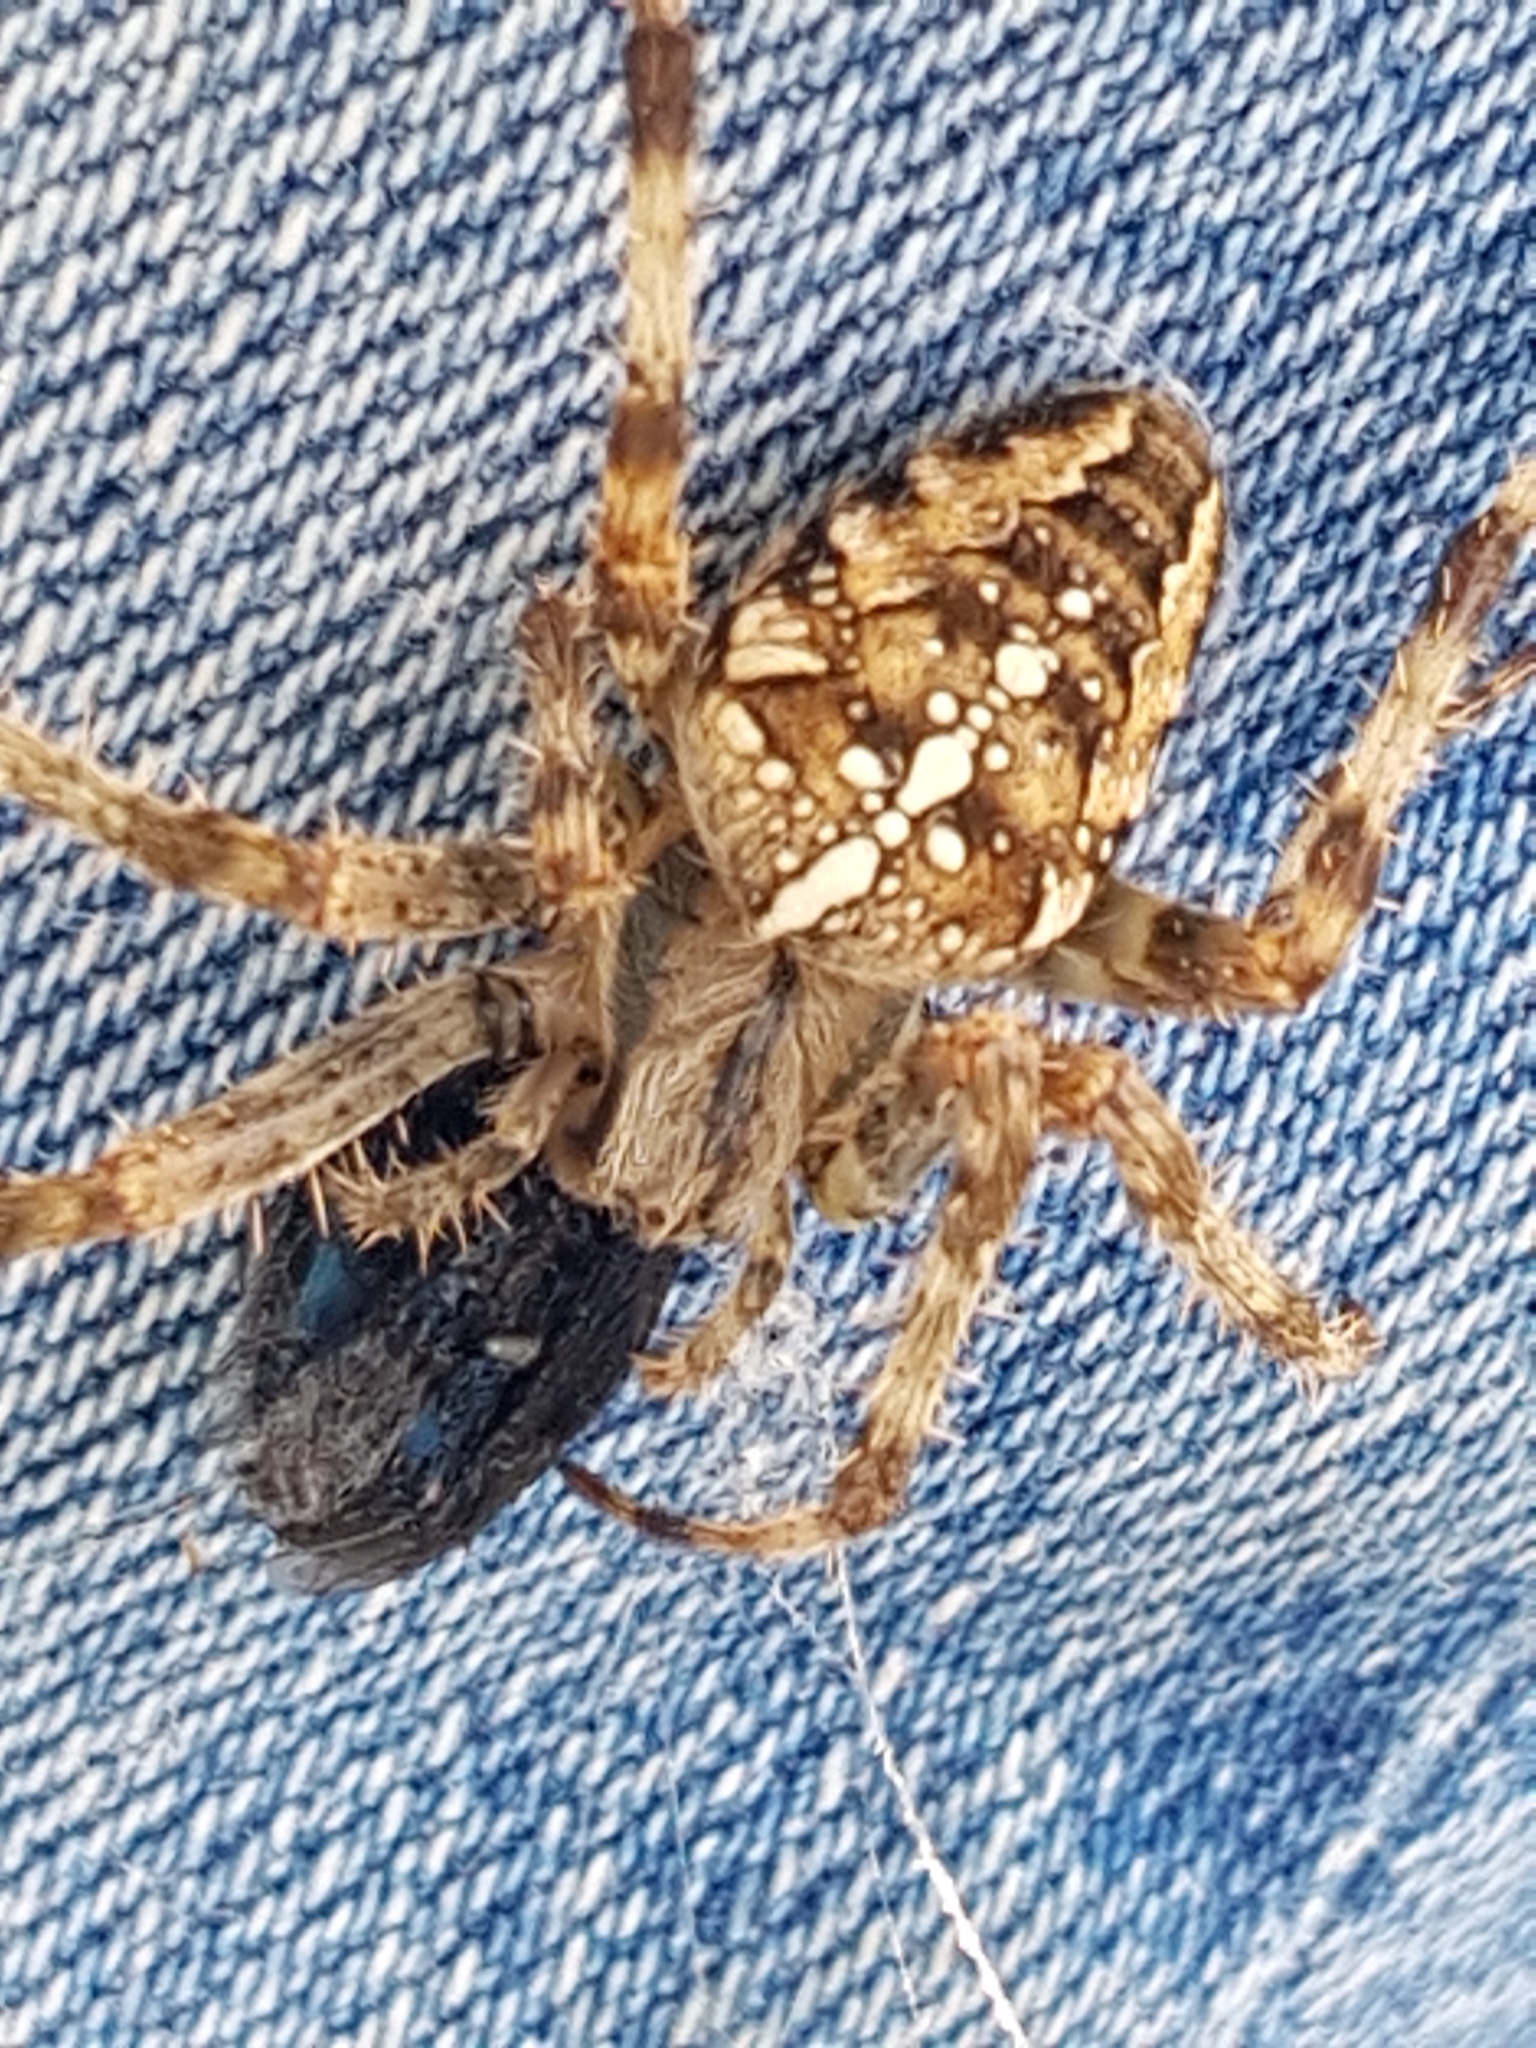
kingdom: Animalia
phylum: Arthropoda
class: Arachnida
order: Araneae
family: Araneidae
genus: Araneus
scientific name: Araneus diadematus
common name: Cross orbweaver
